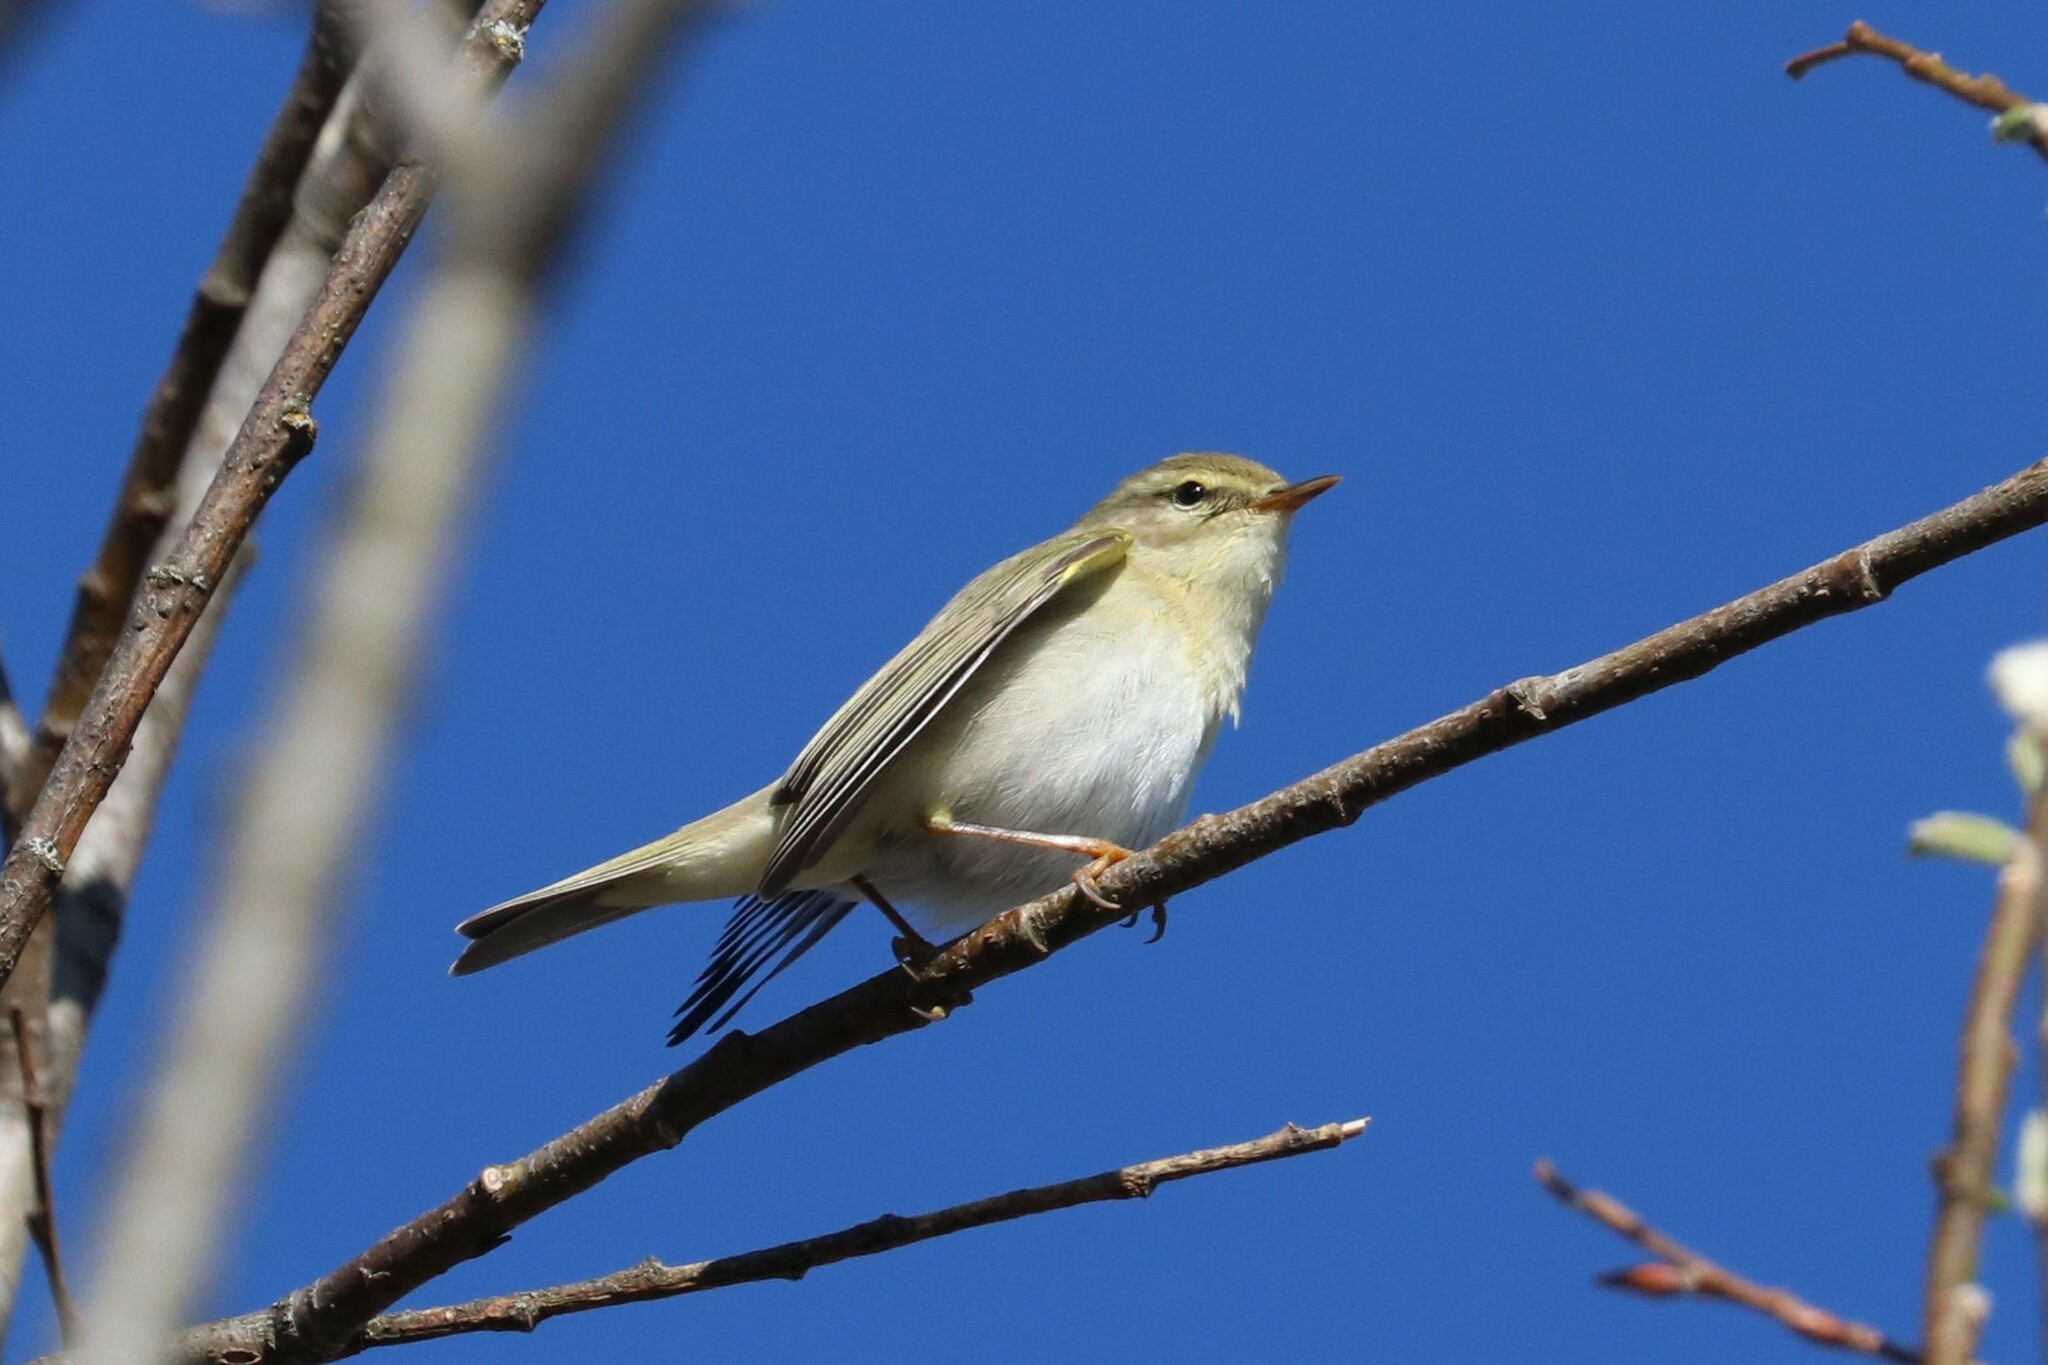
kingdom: Animalia
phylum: Chordata
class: Aves
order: Passeriformes
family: Phylloscopidae
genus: Phylloscopus
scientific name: Phylloscopus trochilus
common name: Willow warbler
